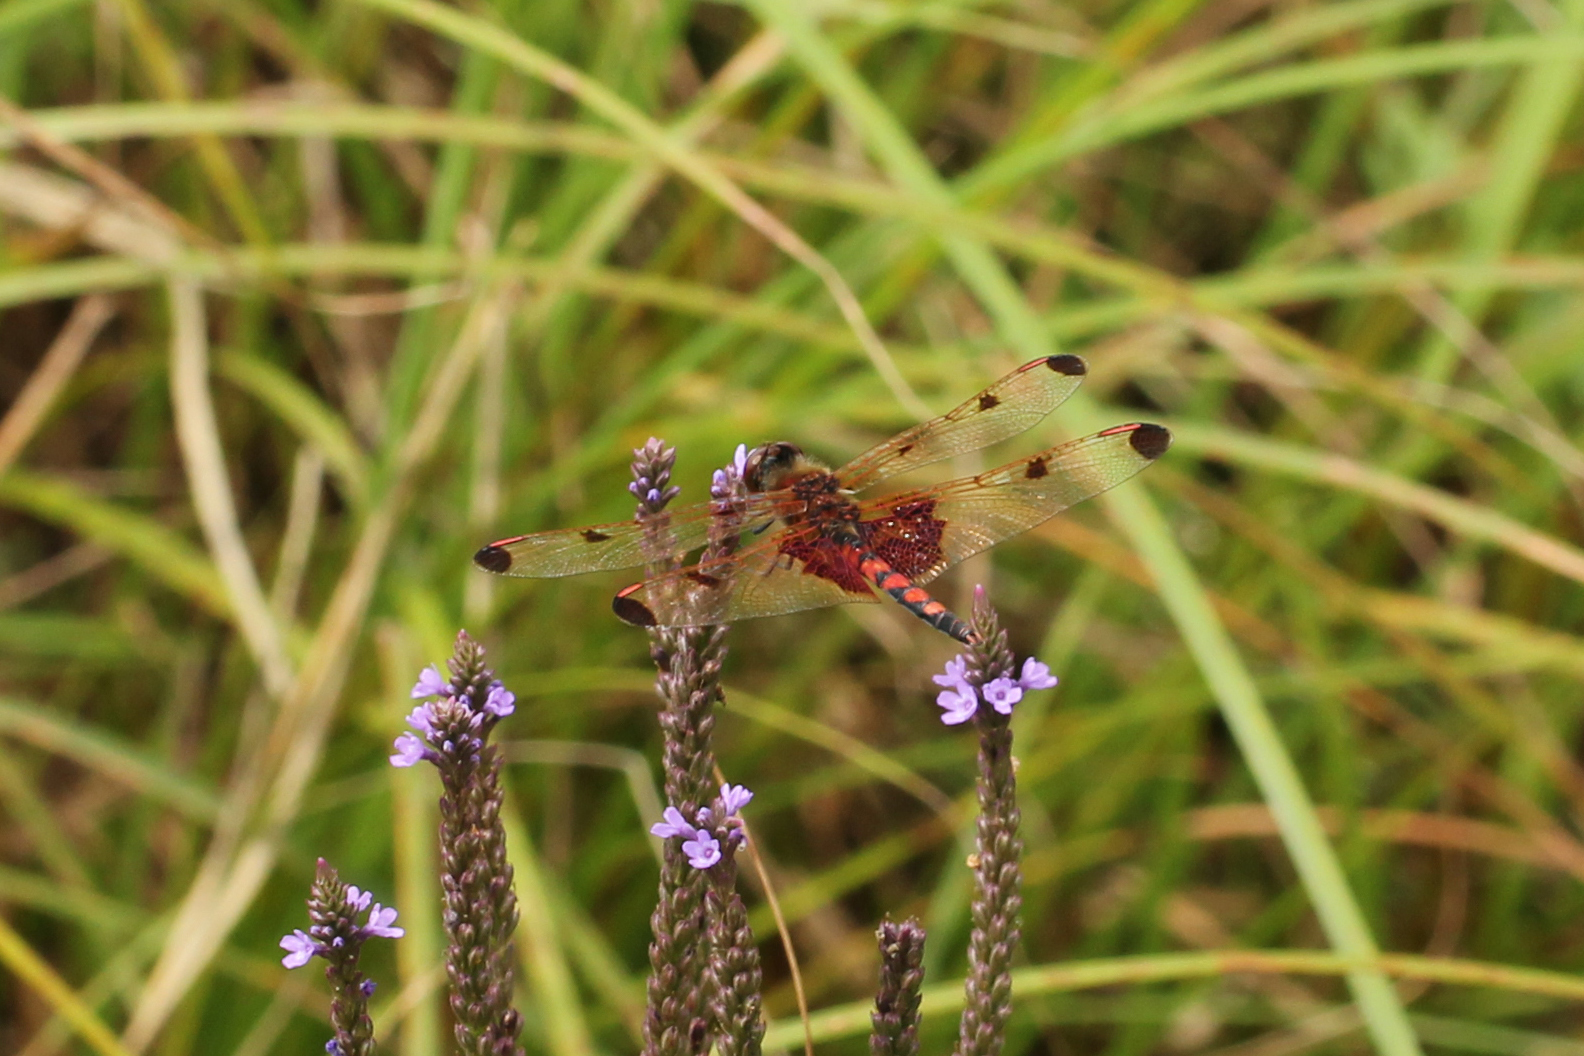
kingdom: Animalia
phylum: Arthropoda
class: Insecta
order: Odonata
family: Libellulidae
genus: Celithemis
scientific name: Celithemis elisa
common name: Calico pennant
